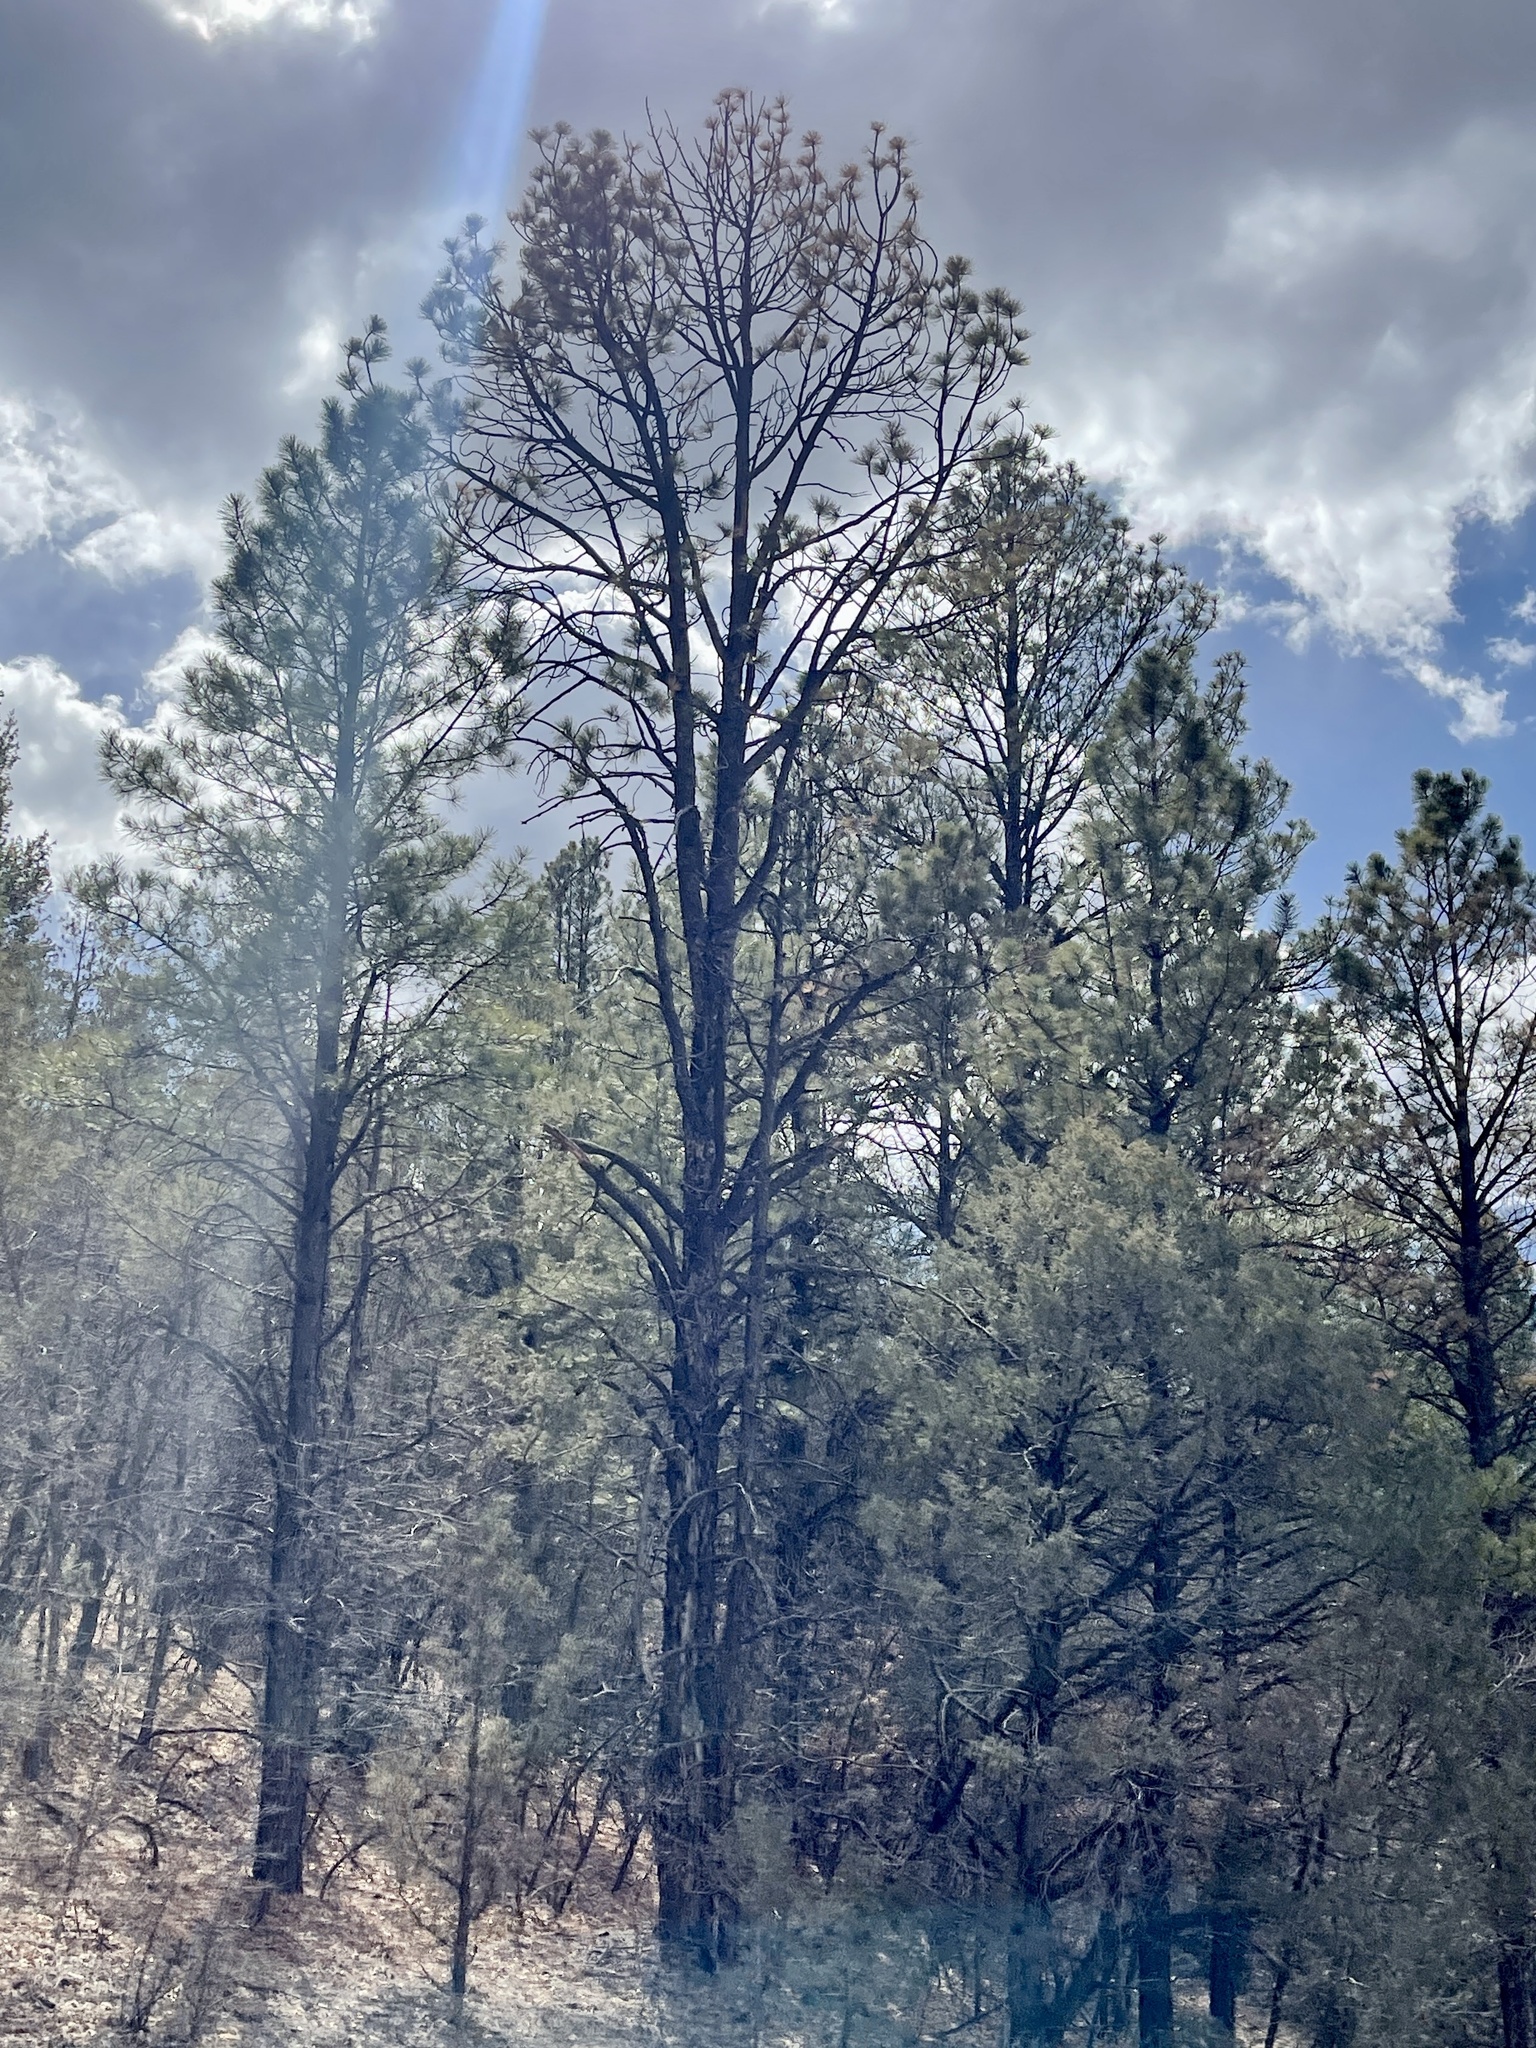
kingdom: Plantae
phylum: Tracheophyta
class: Pinopsida
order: Pinales
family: Pinaceae
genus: Pinus
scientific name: Pinus ponderosa
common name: Western yellow-pine
